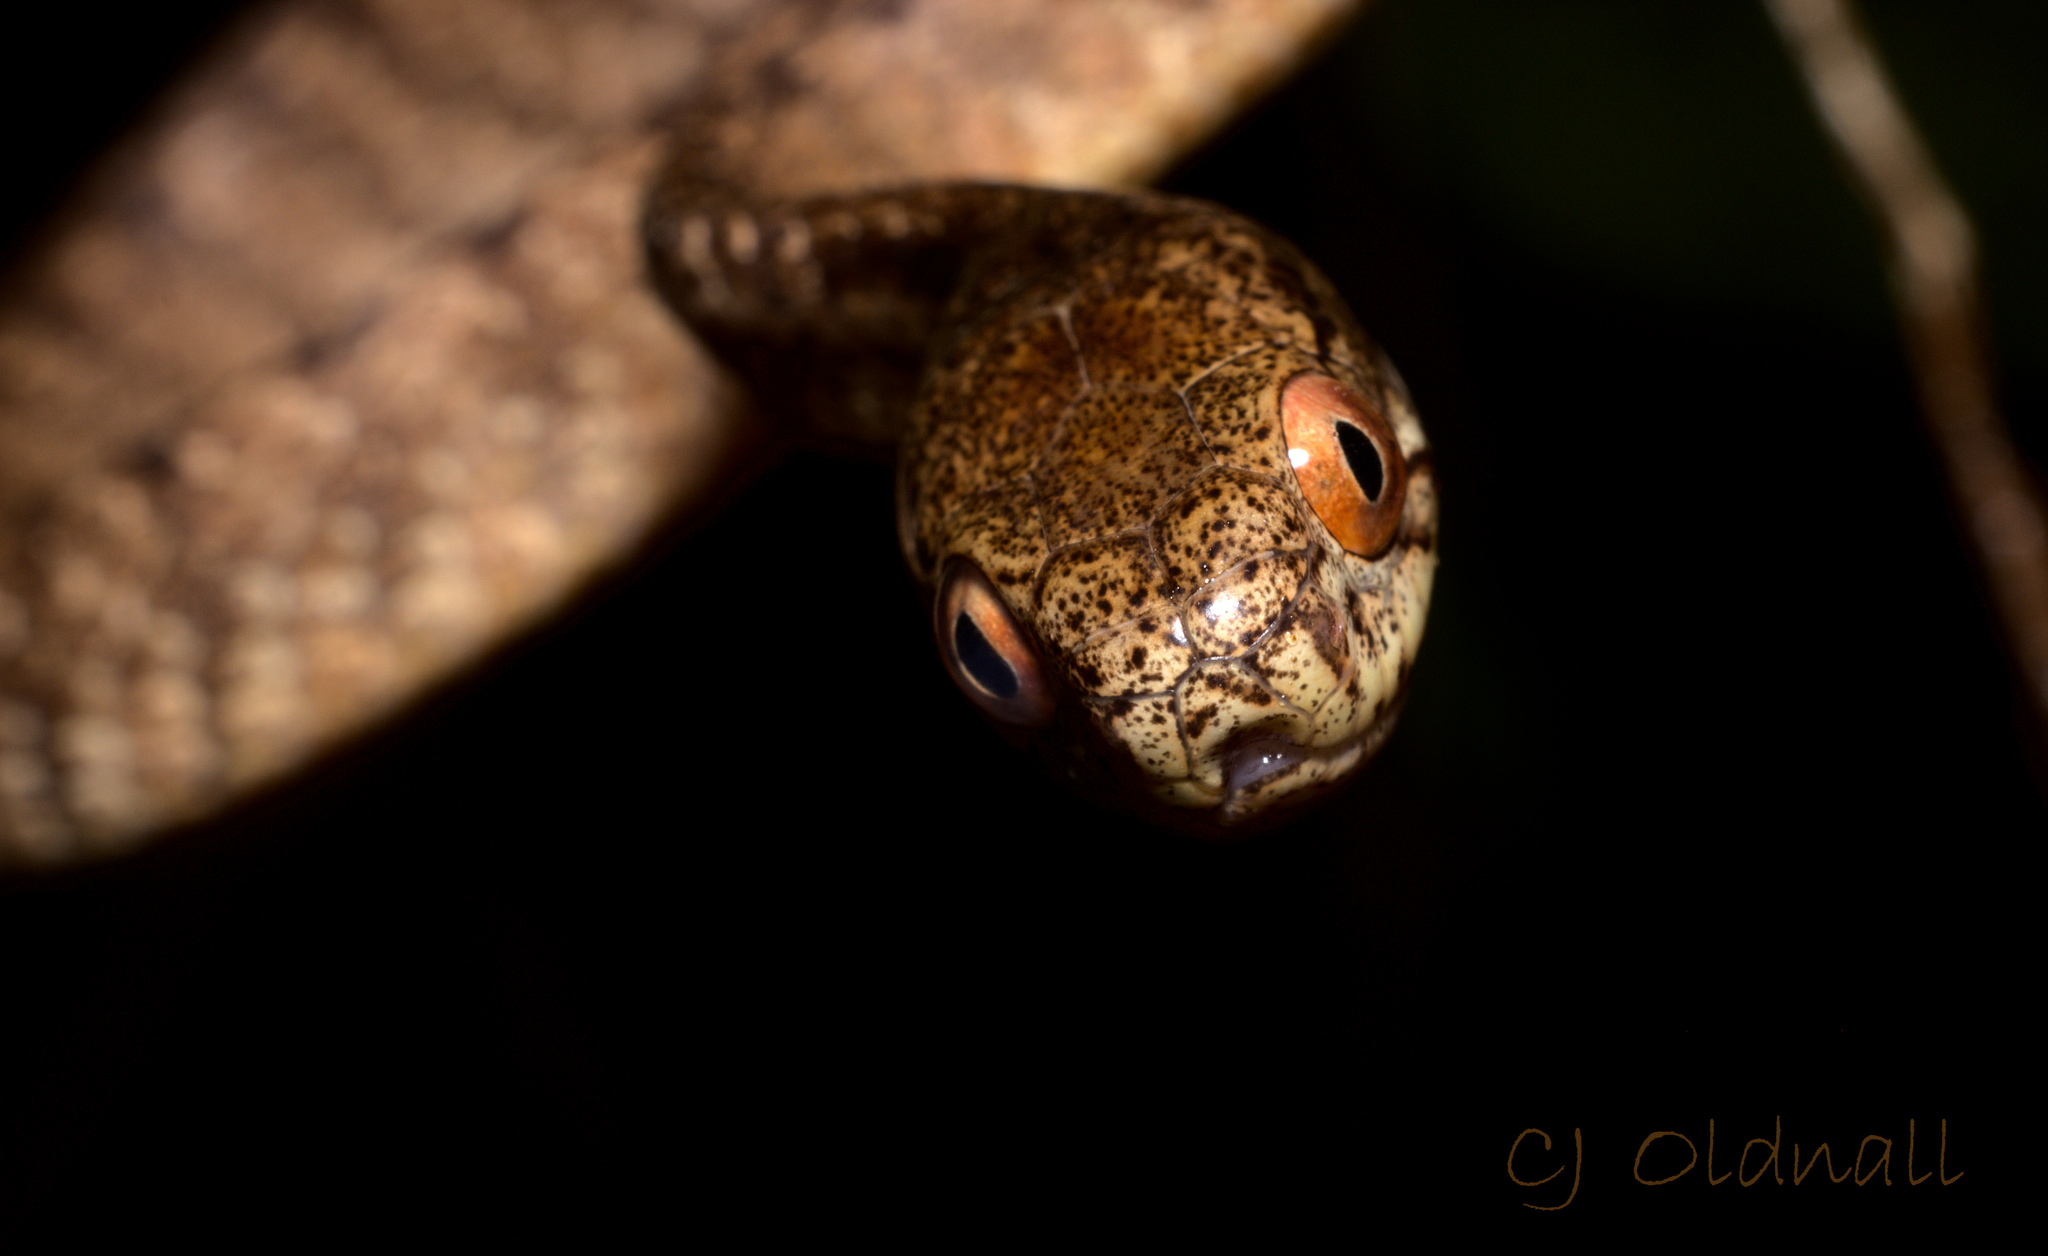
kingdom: Animalia
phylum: Chordata
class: Squamata
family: Pareidae
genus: Pareas
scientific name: Pareas carinatus
